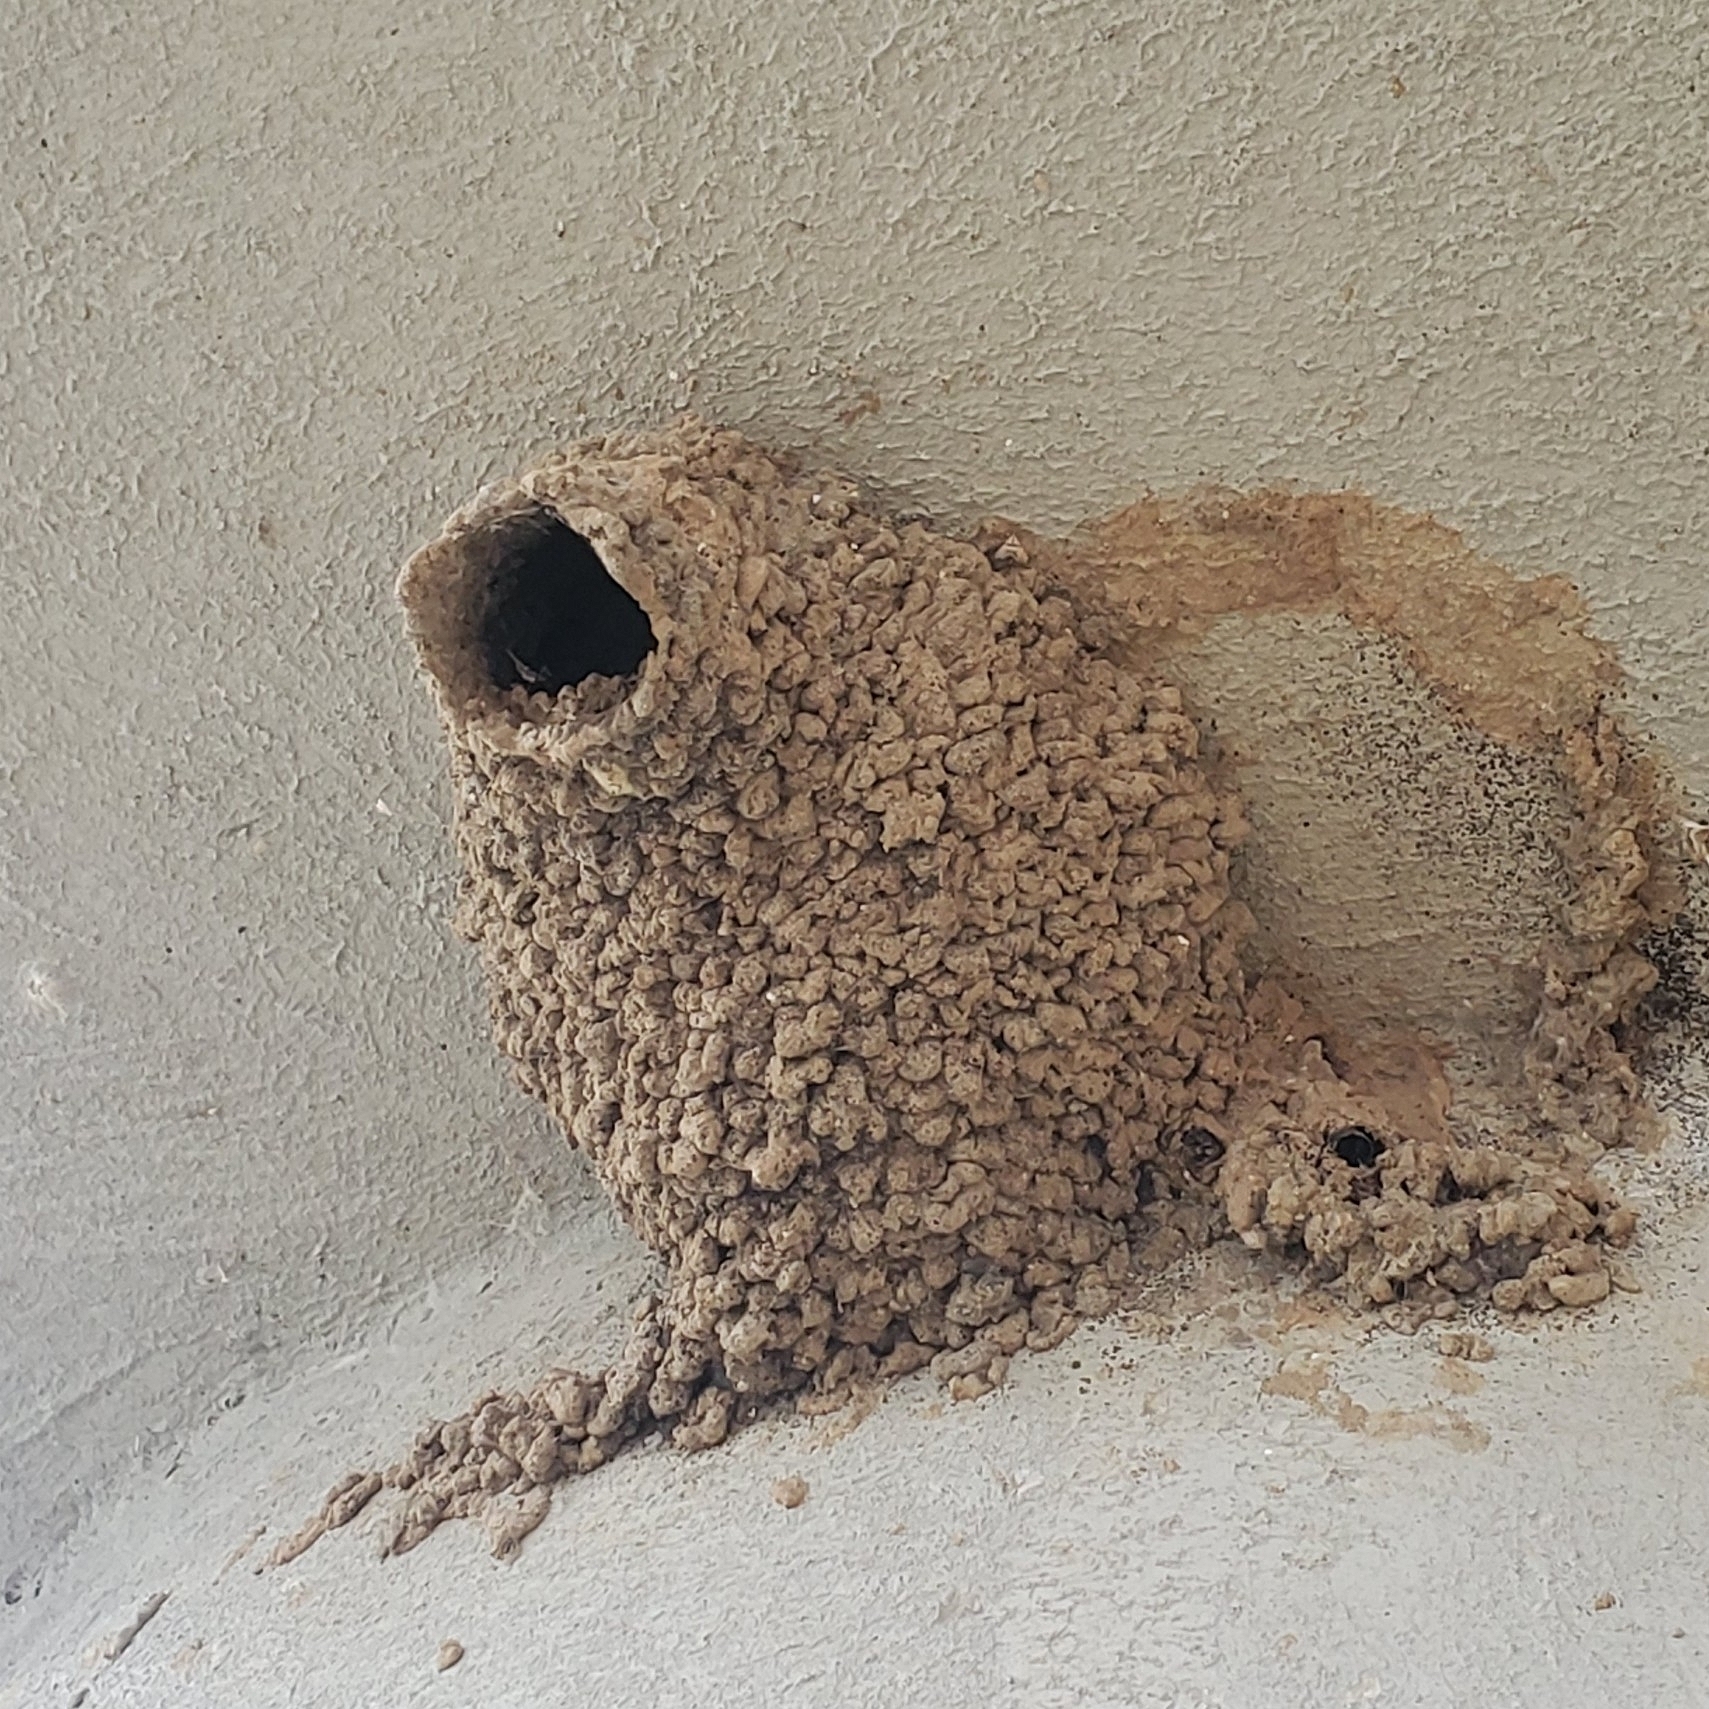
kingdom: Animalia
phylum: Chordata
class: Aves
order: Passeriformes
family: Hirundinidae
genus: Petrochelidon
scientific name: Petrochelidon pyrrhonota
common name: American cliff swallow
